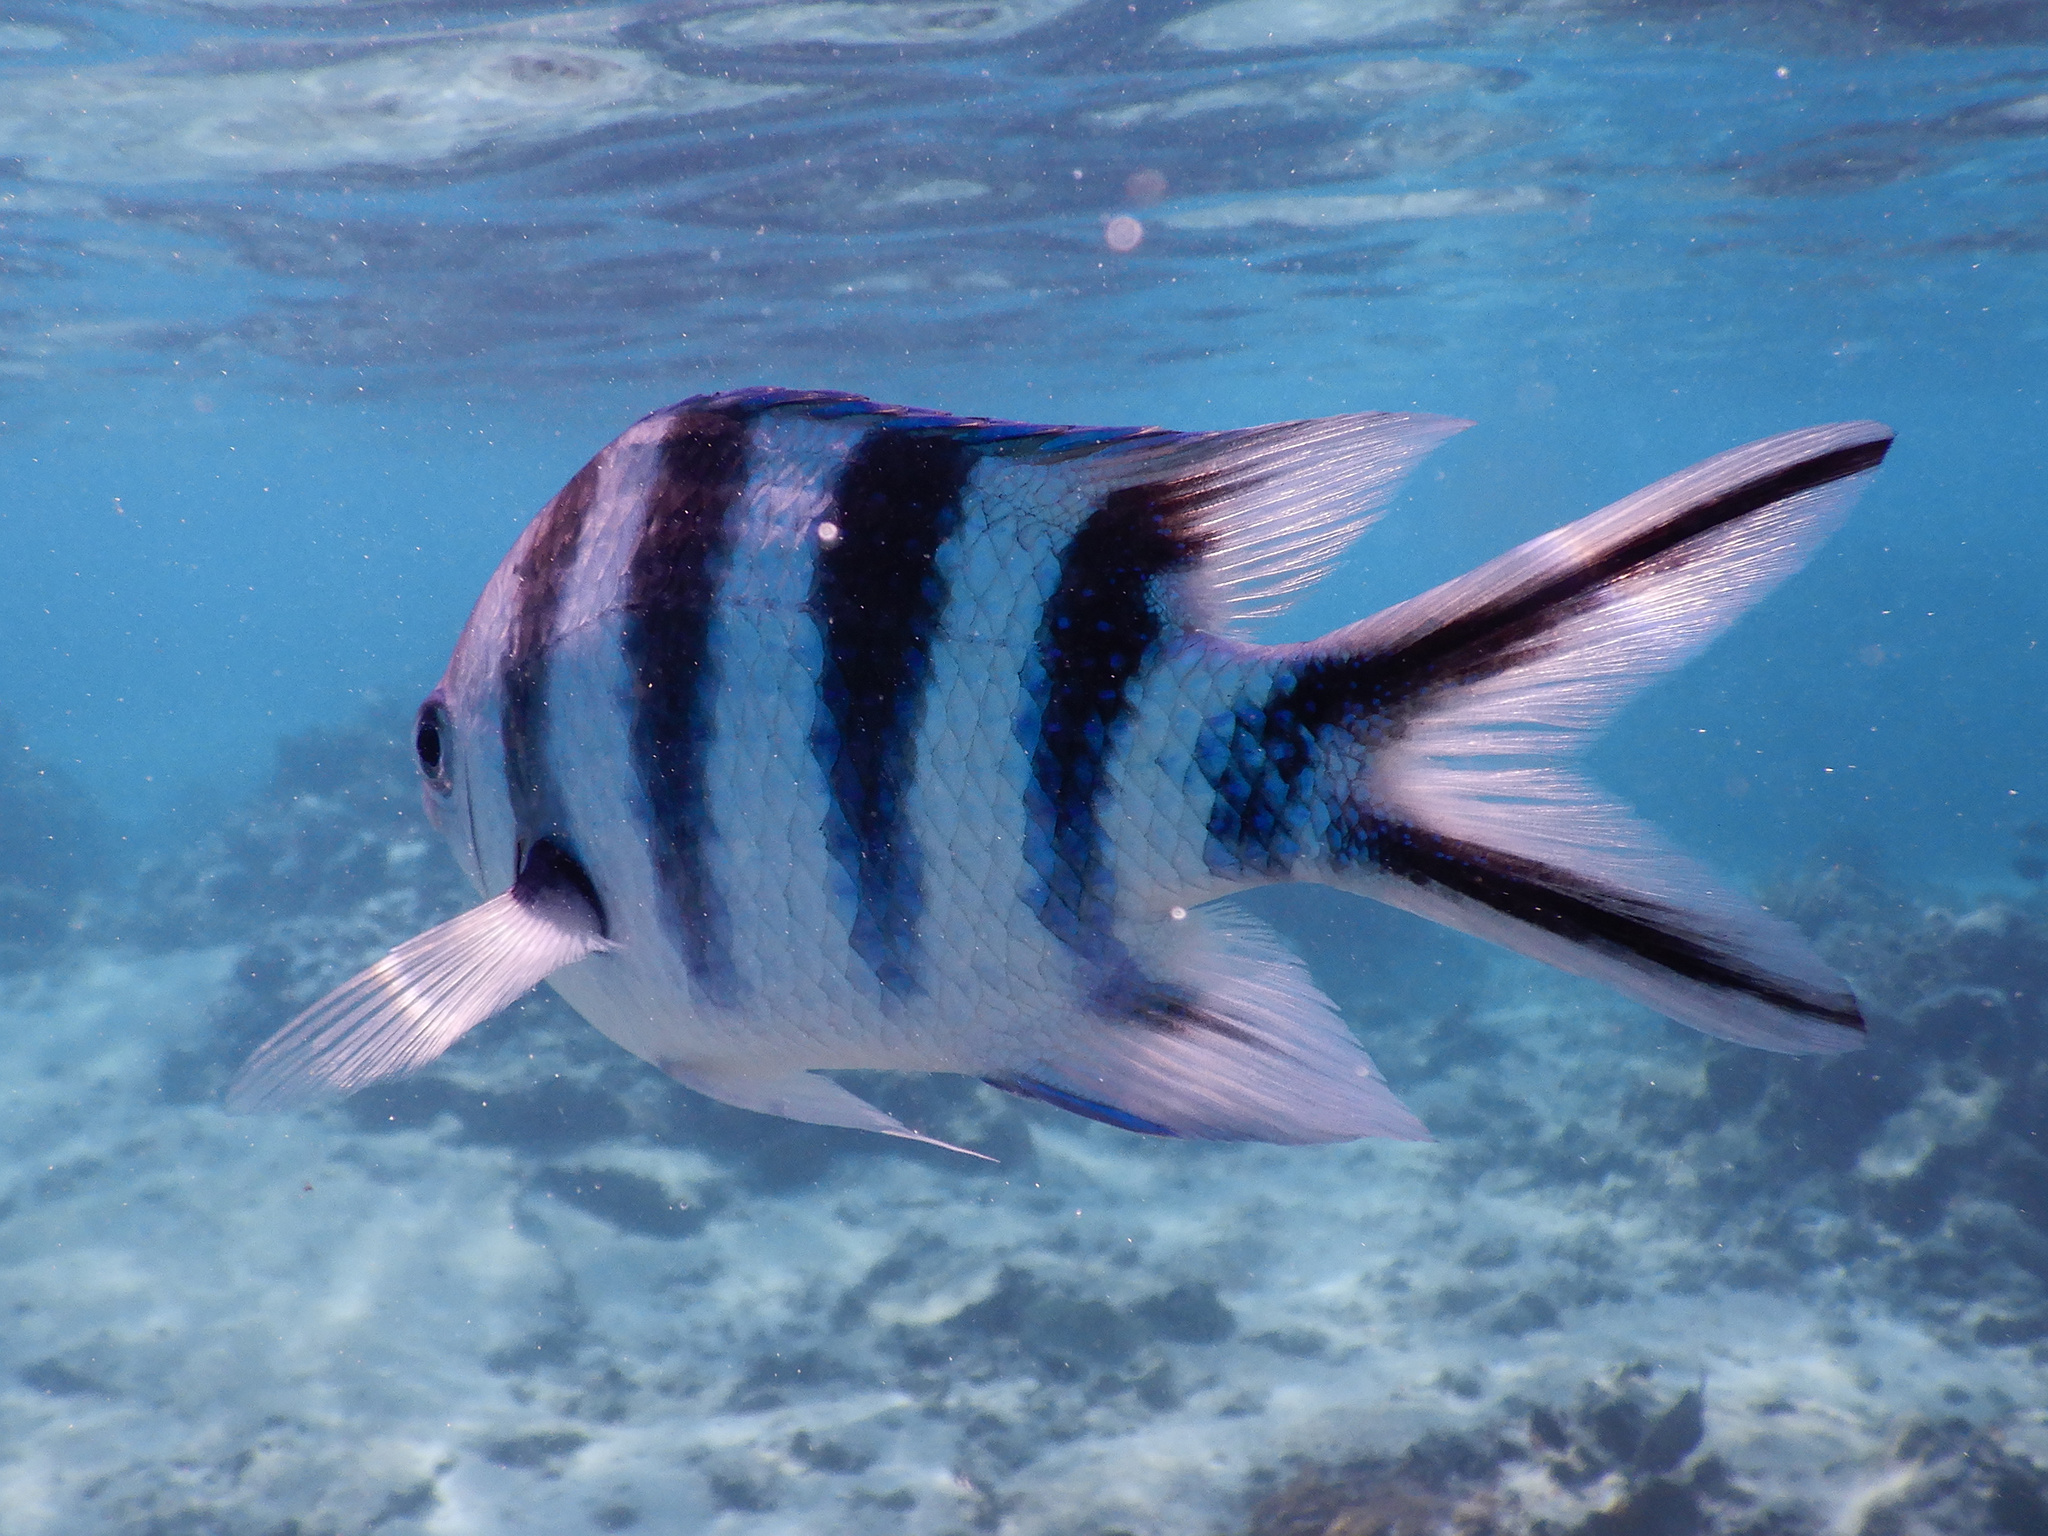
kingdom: Animalia
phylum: Chordata
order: Perciformes
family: Pomacentridae
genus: Abudefduf
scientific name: Abudefduf sexfasciatus
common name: Scissortail sergeant
